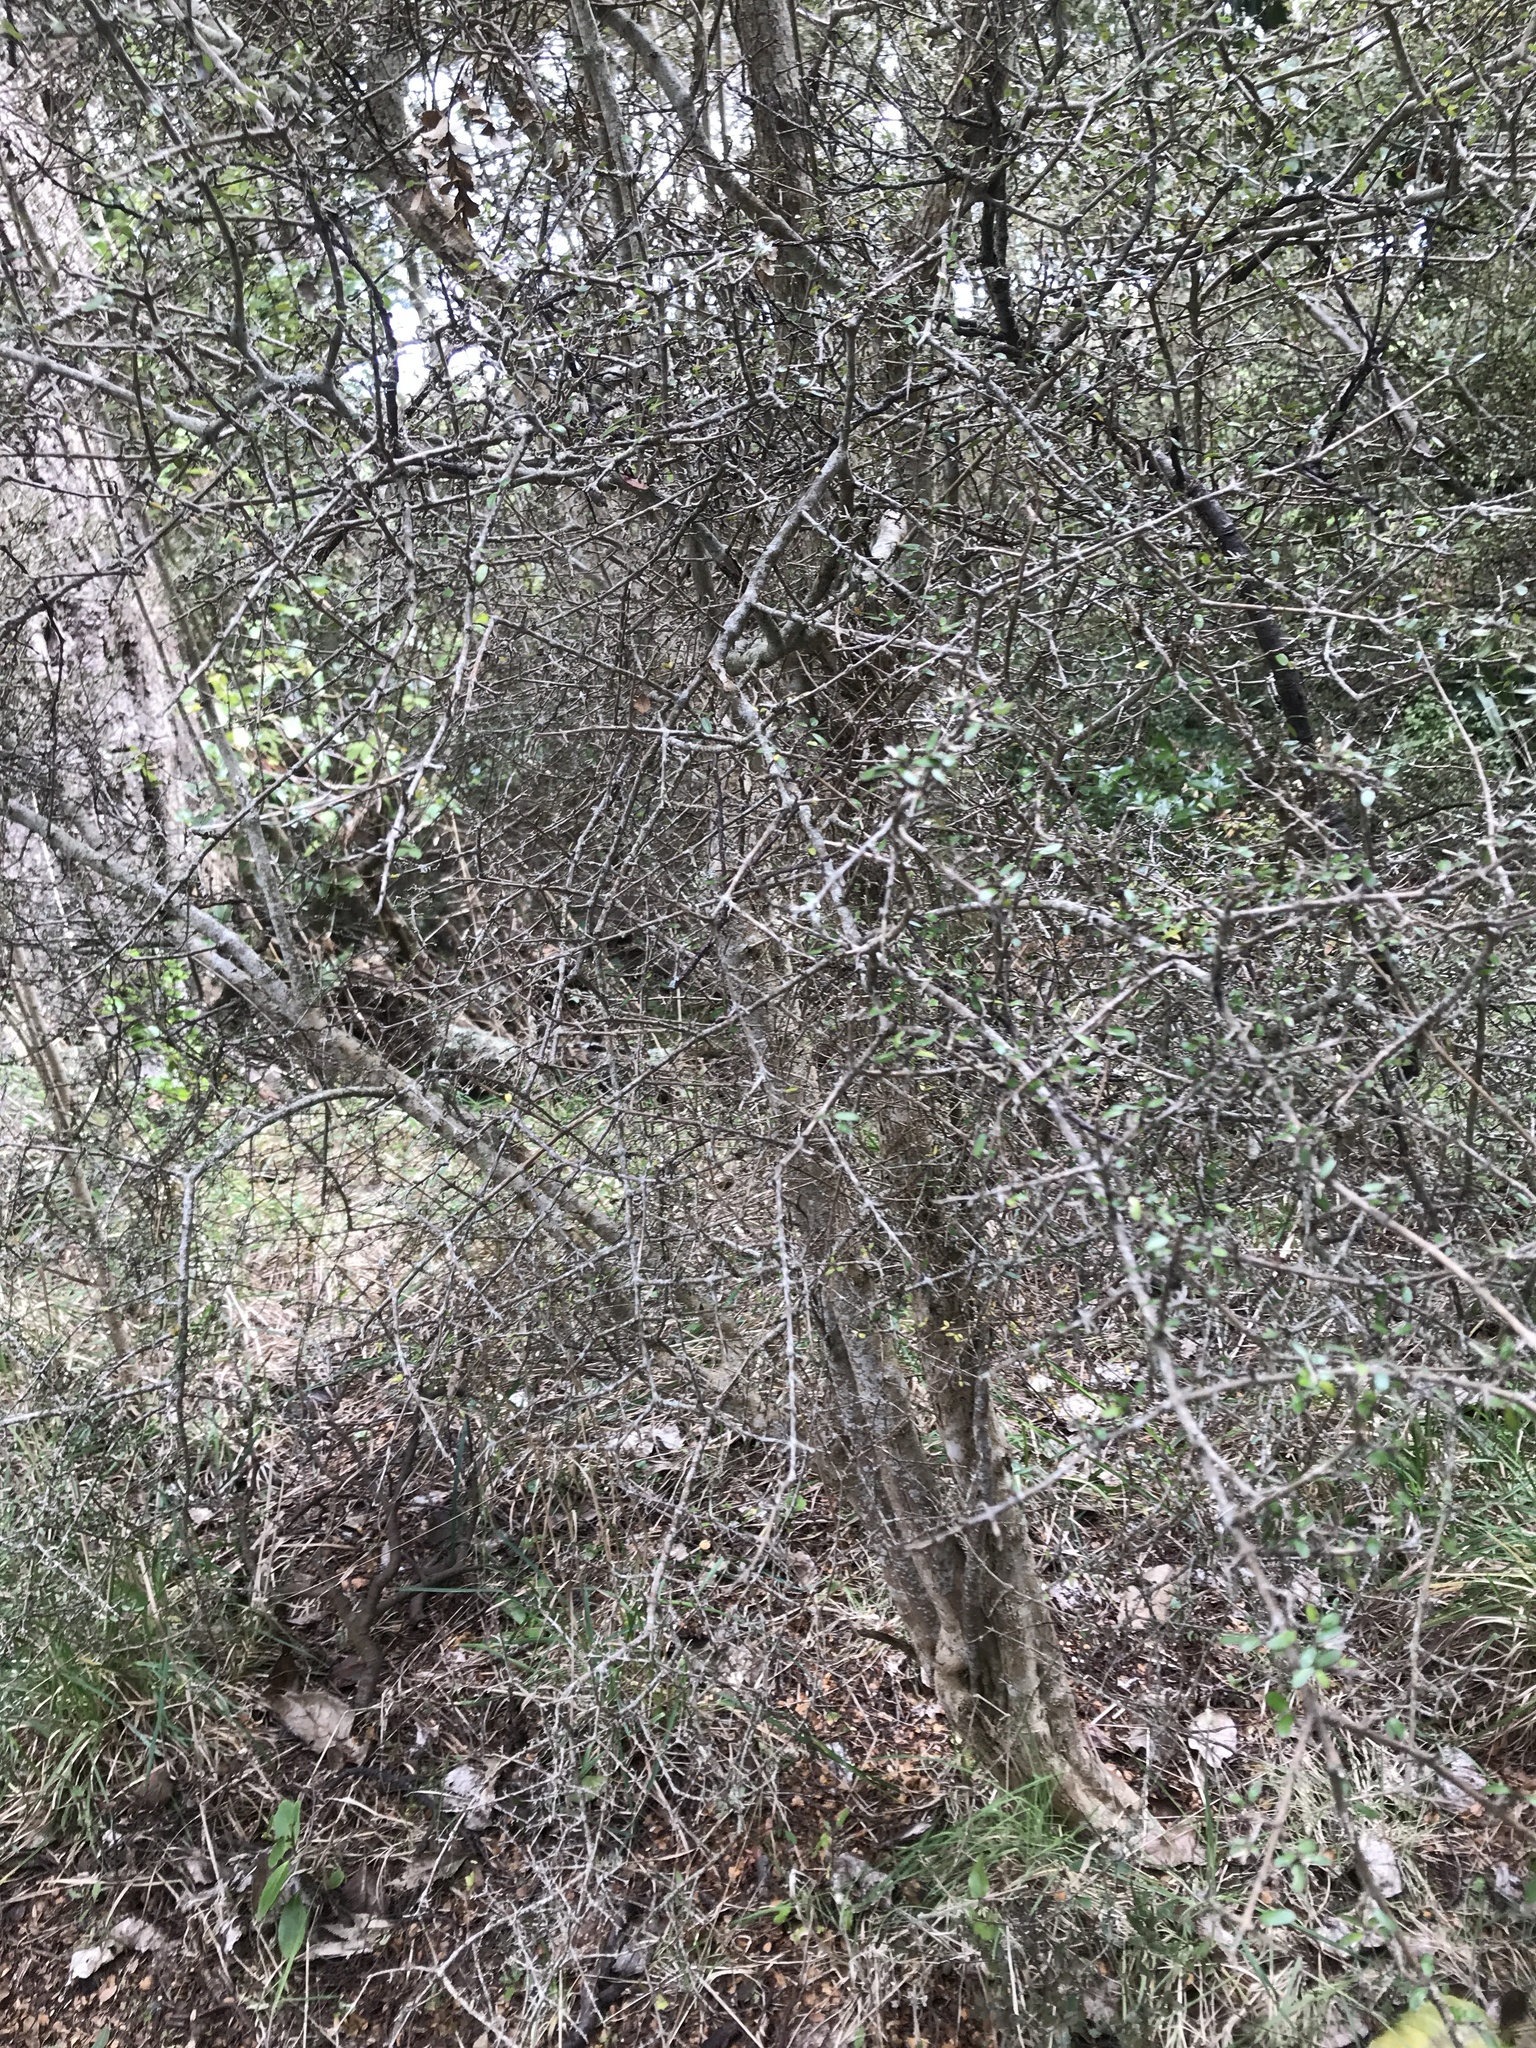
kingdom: Plantae
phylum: Tracheophyta
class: Magnoliopsida
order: Gentianales
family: Rubiaceae
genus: Coprosma
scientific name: Coprosma propinqua
